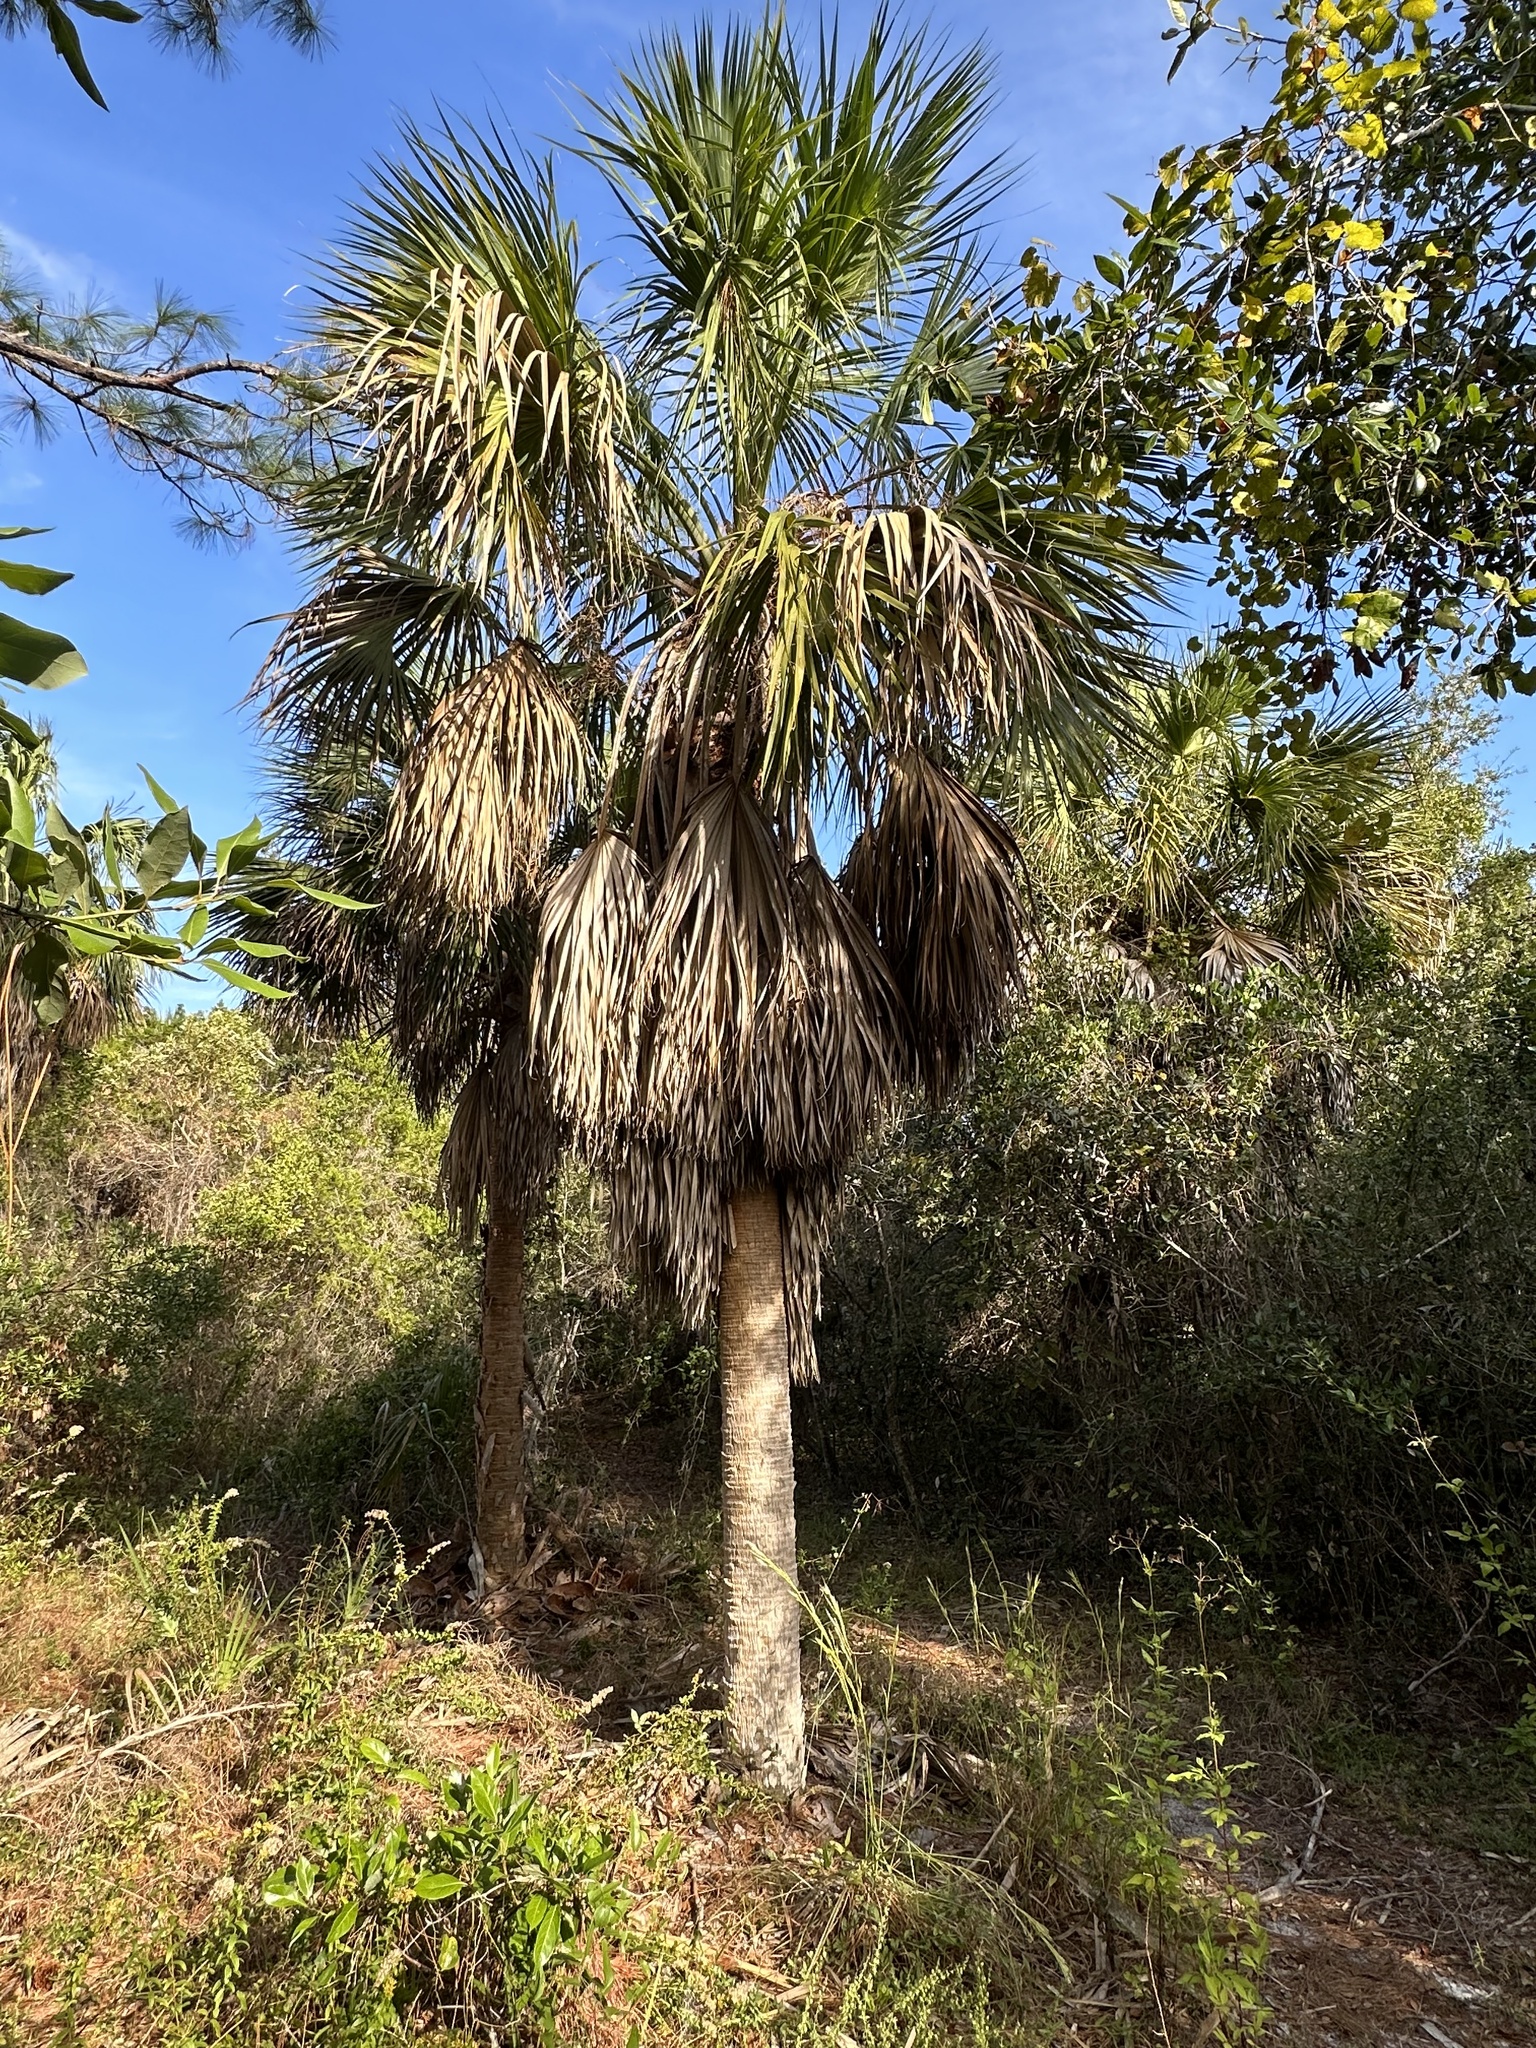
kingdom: Plantae
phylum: Tracheophyta
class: Liliopsida
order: Arecales
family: Arecaceae
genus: Sabal
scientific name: Sabal palmetto
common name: Blue palmetto
